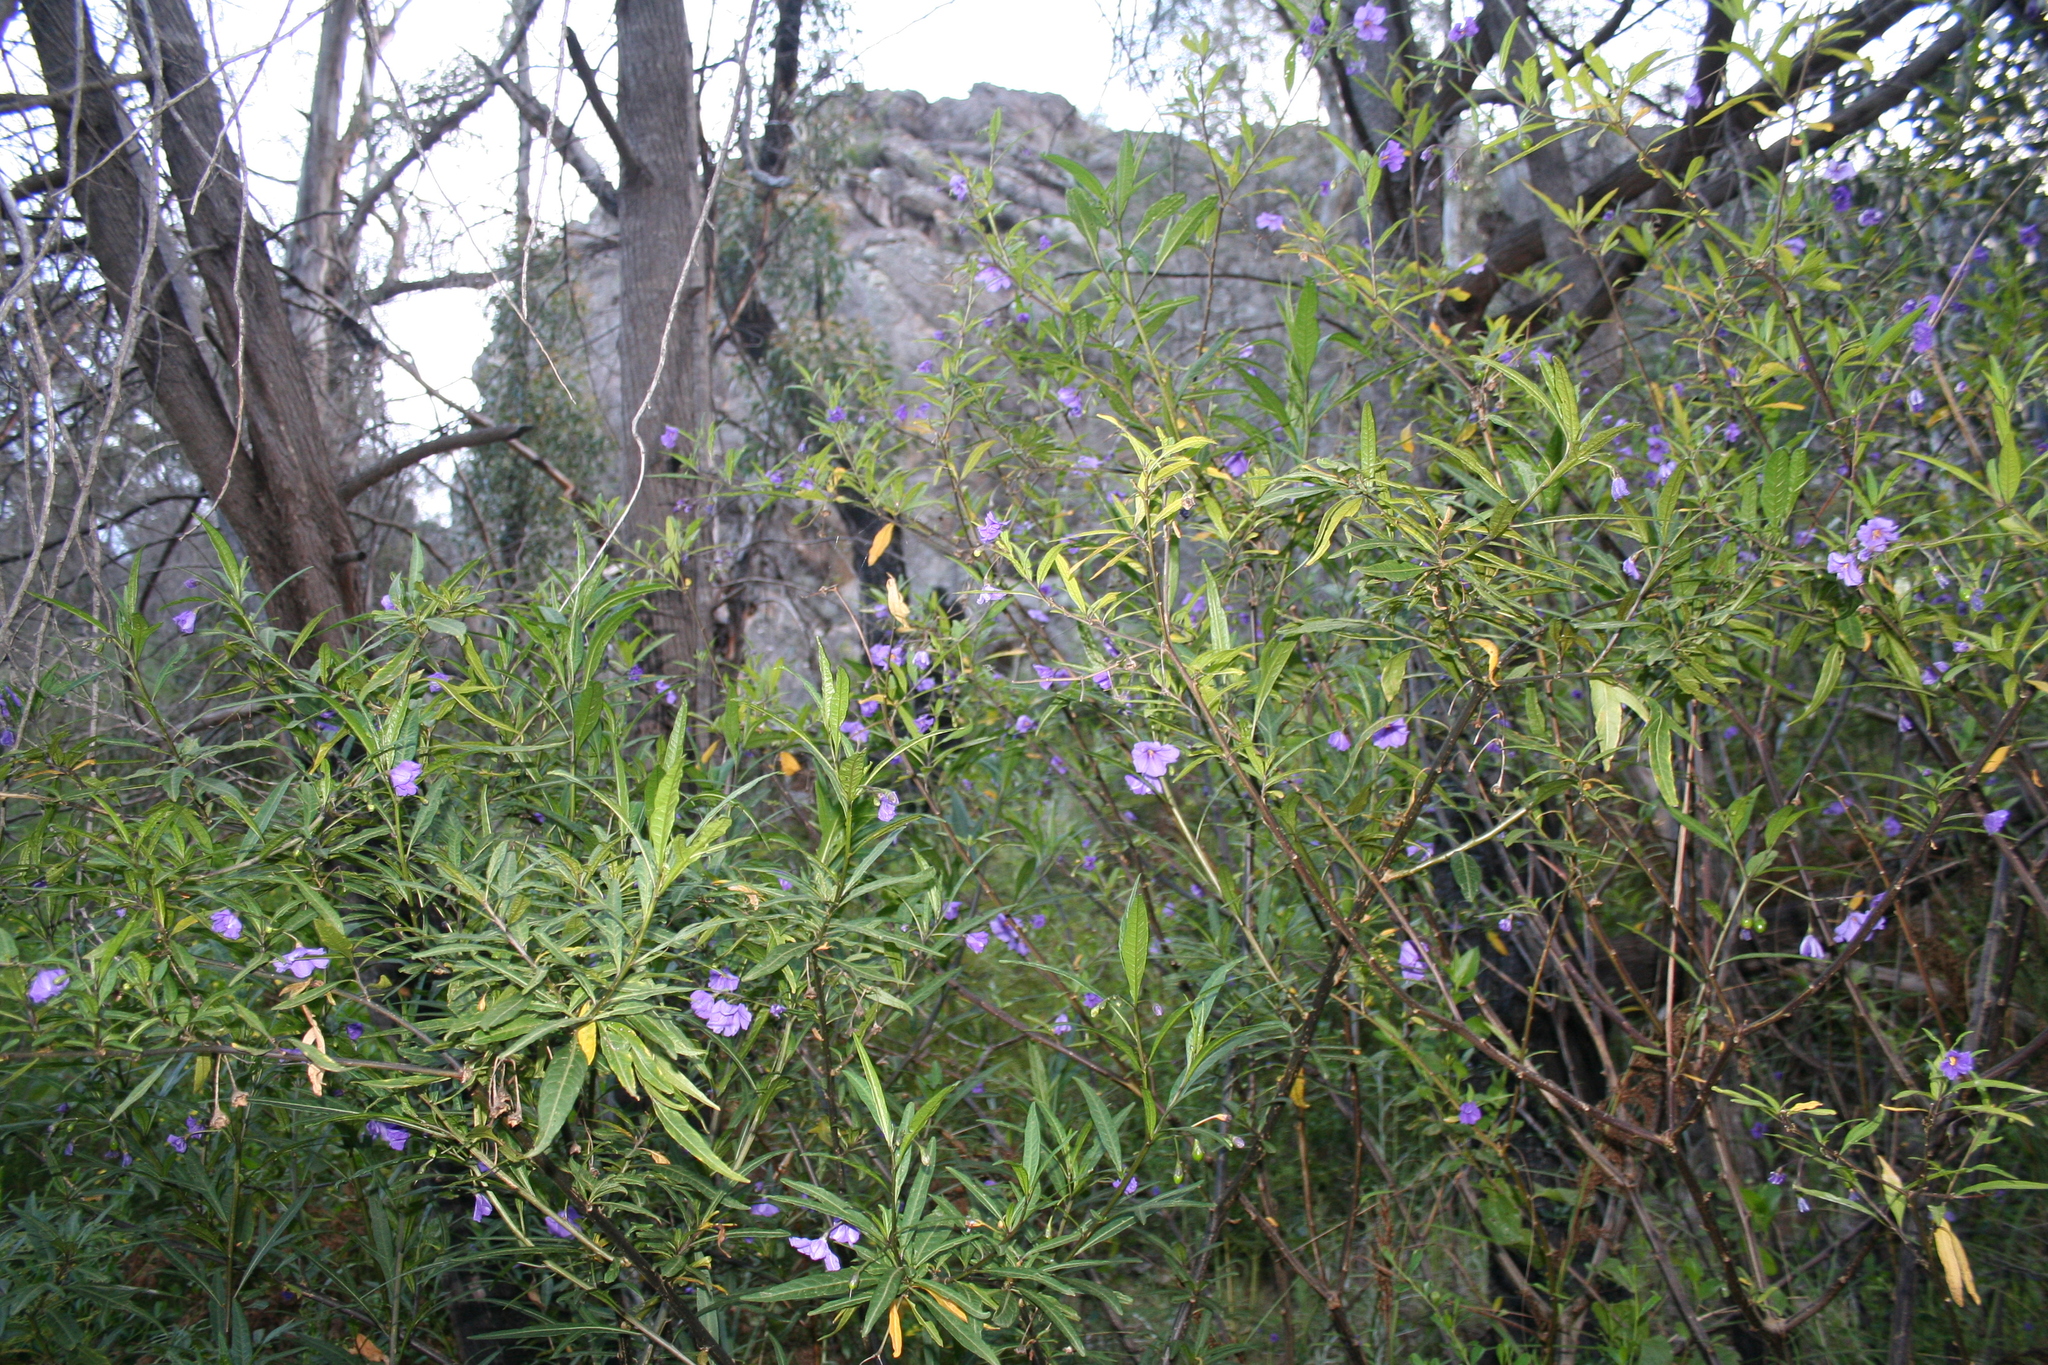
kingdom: Plantae
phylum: Tracheophyta
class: Magnoliopsida
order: Solanales
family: Solanaceae
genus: Solanum
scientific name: Solanum laciniatum
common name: Kangaroo-apple
